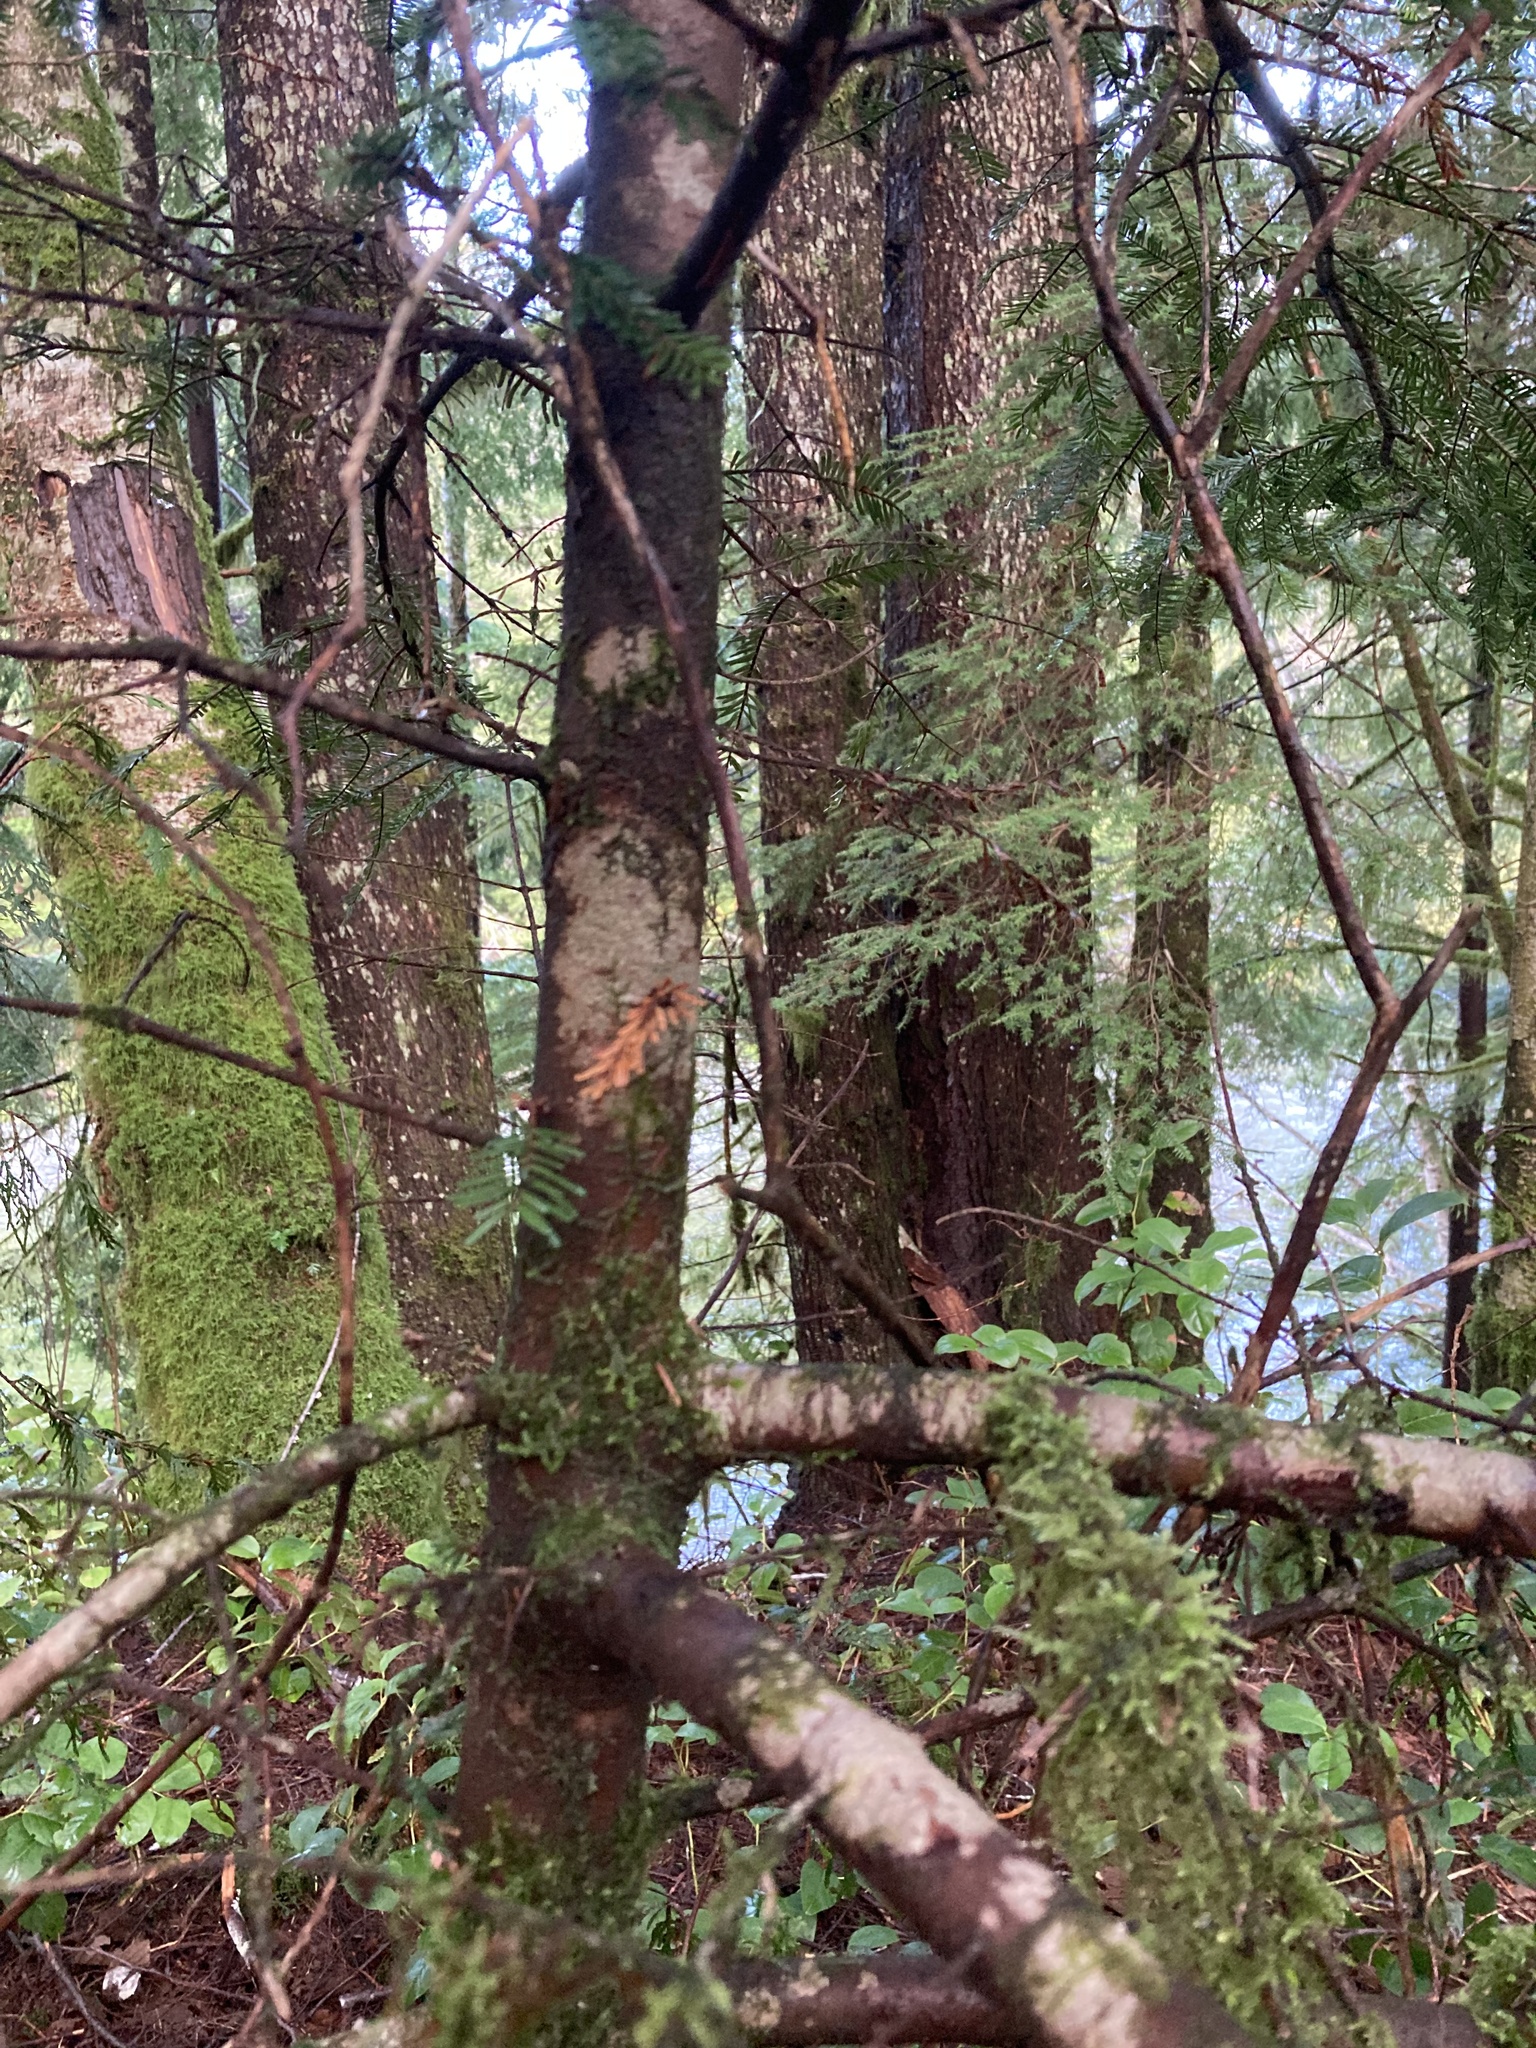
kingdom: Plantae
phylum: Tracheophyta
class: Pinopsida
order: Pinales
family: Pinaceae
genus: Abies
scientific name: Abies amabilis
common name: Pacific silver fir
